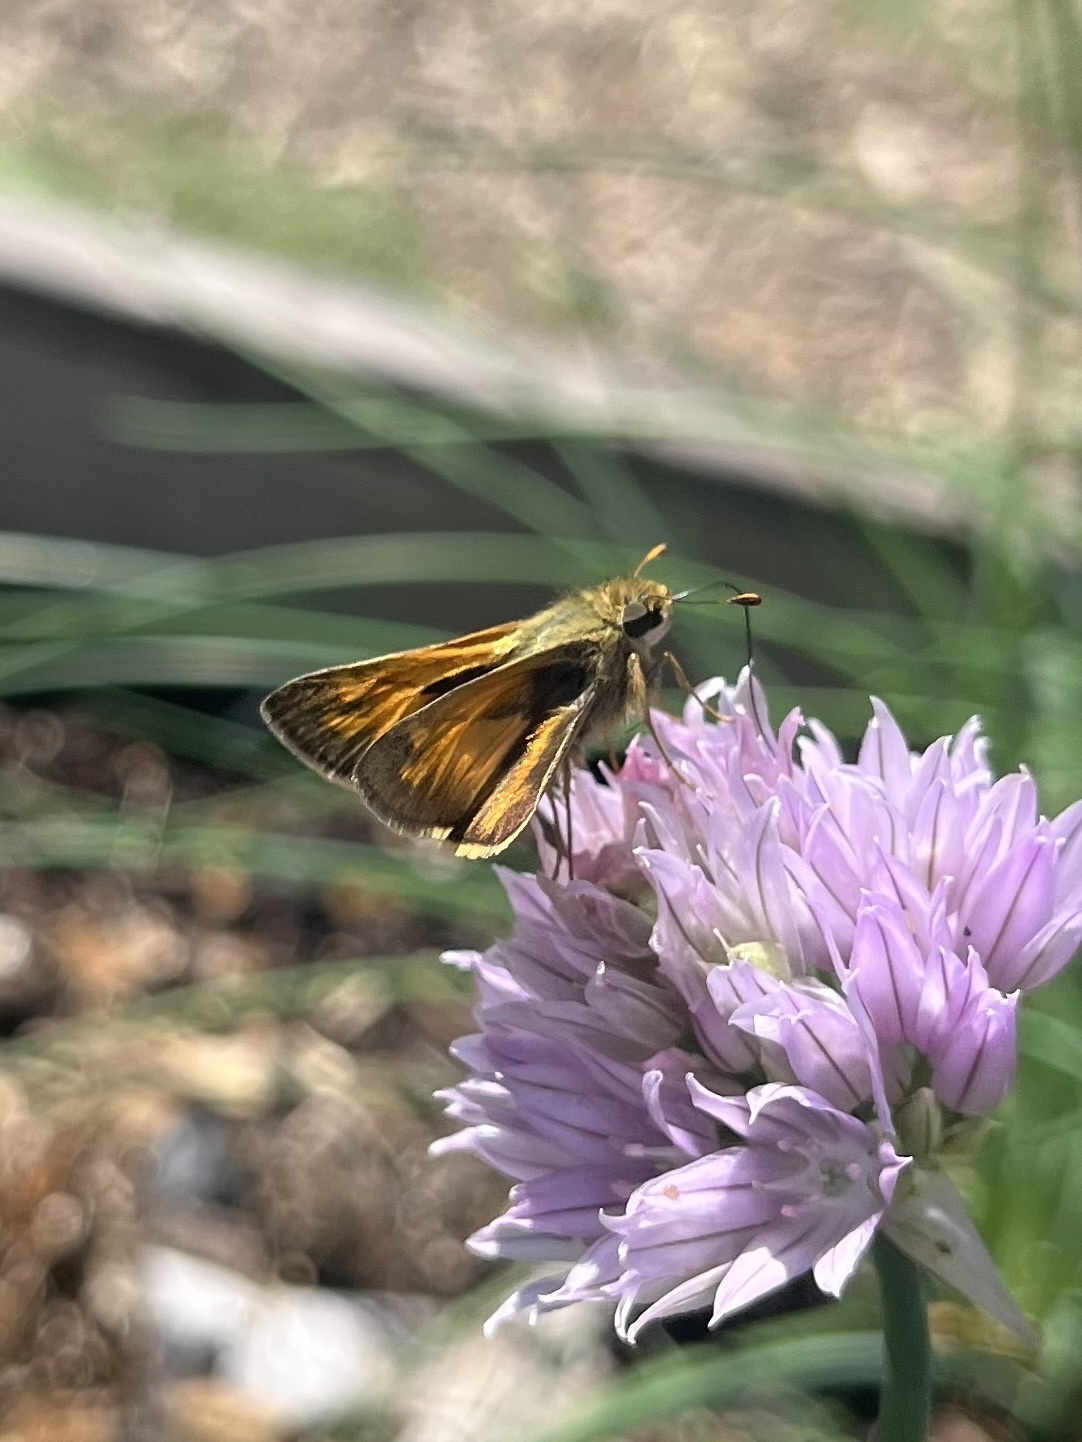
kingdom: Animalia
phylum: Arthropoda
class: Insecta
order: Lepidoptera
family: Hesperiidae
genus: Atalopedes
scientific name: Atalopedes
